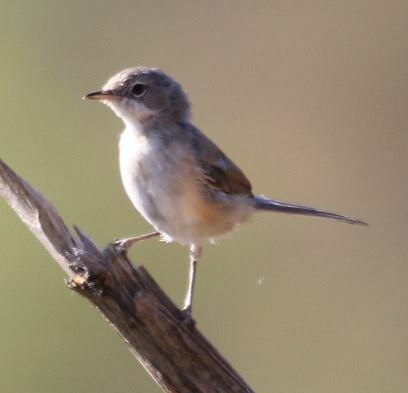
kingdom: Animalia
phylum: Chordata
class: Aves
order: Passeriformes
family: Sylviidae
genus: Sylvia
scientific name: Sylvia conspicillata
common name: Spectacled warbler
